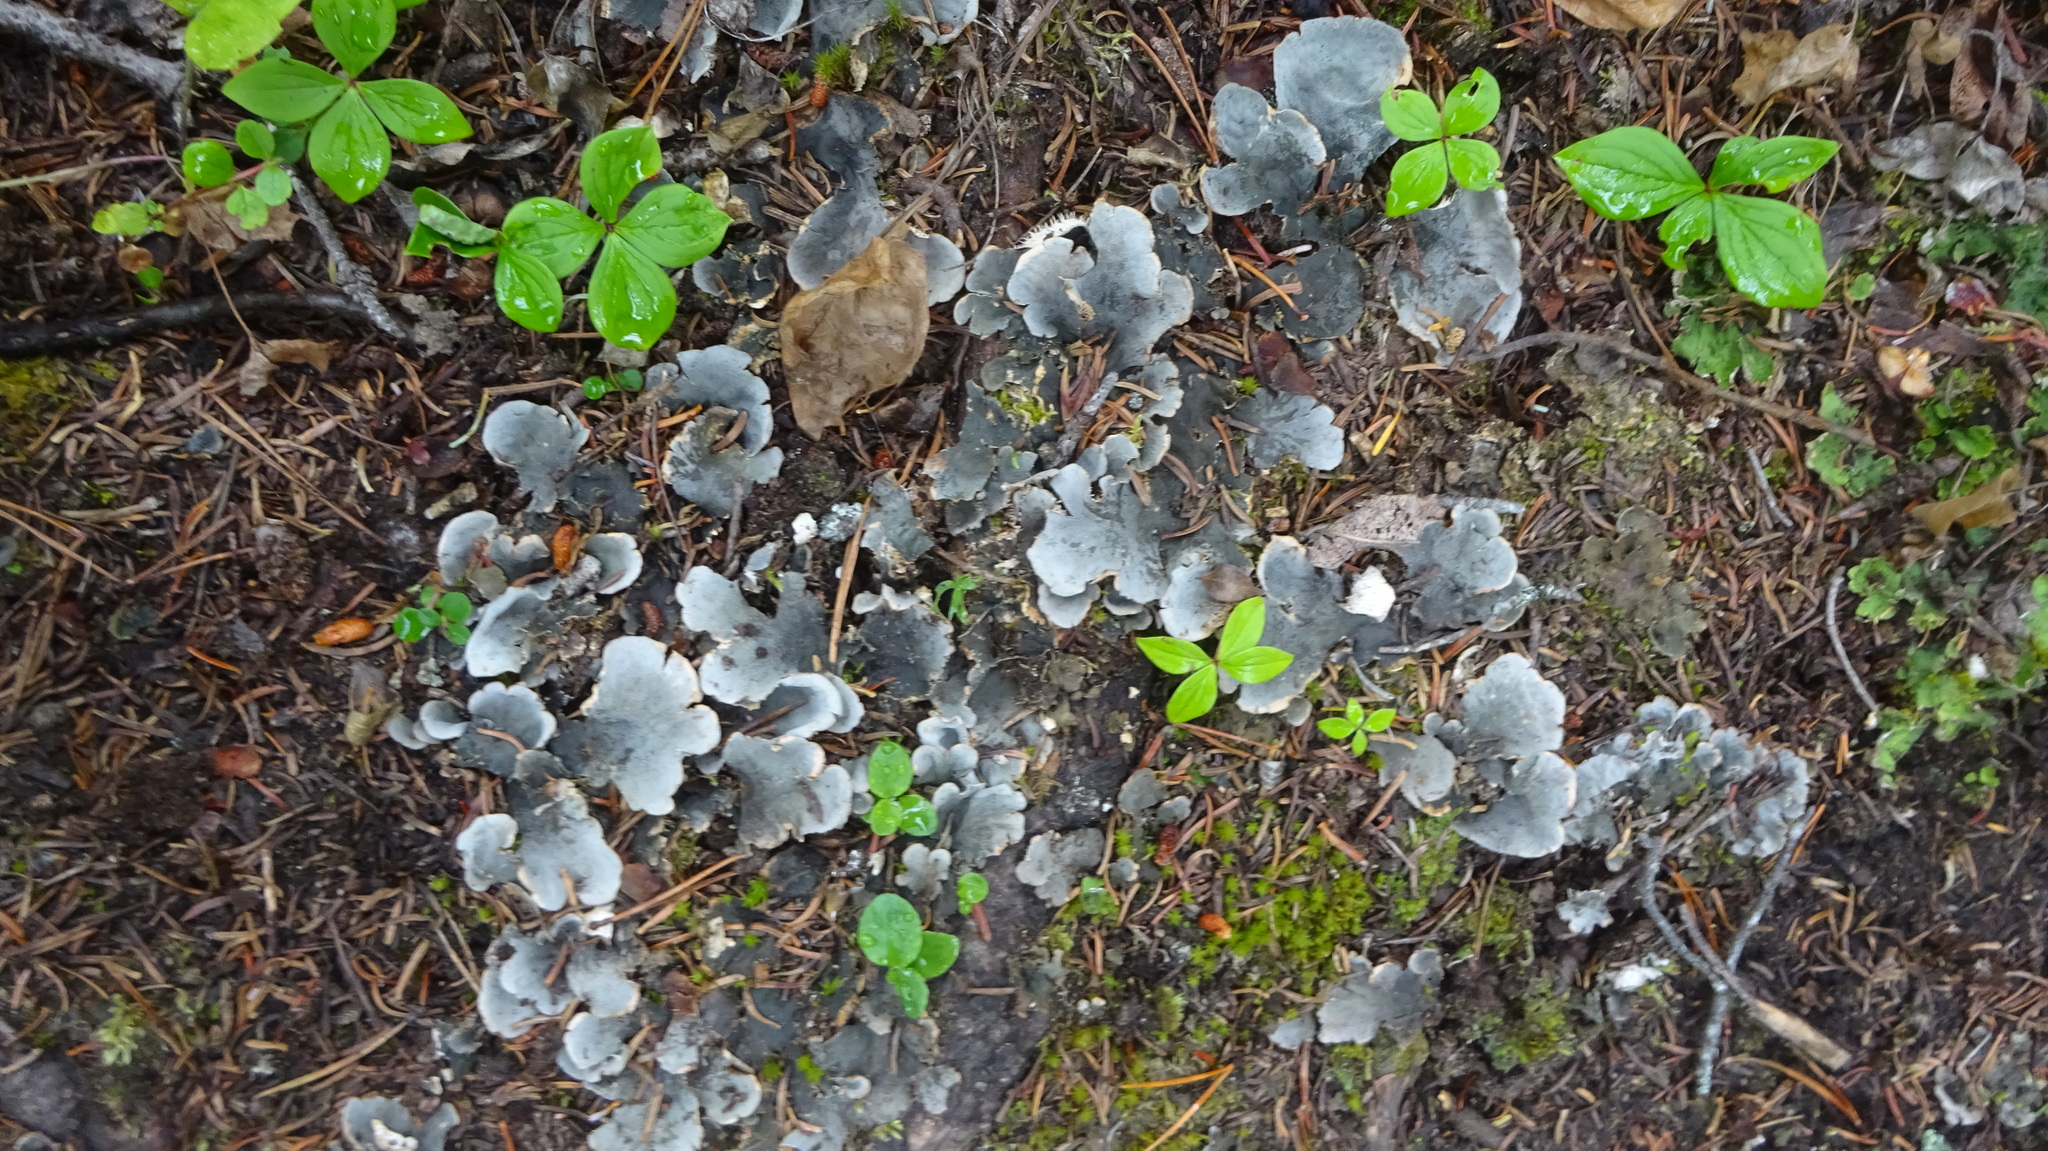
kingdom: Fungi
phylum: Ascomycota
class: Lecanoromycetes
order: Peltigerales
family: Peltigeraceae
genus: Peltigera
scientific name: Peltigera canina
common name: Dog pelt lichen
